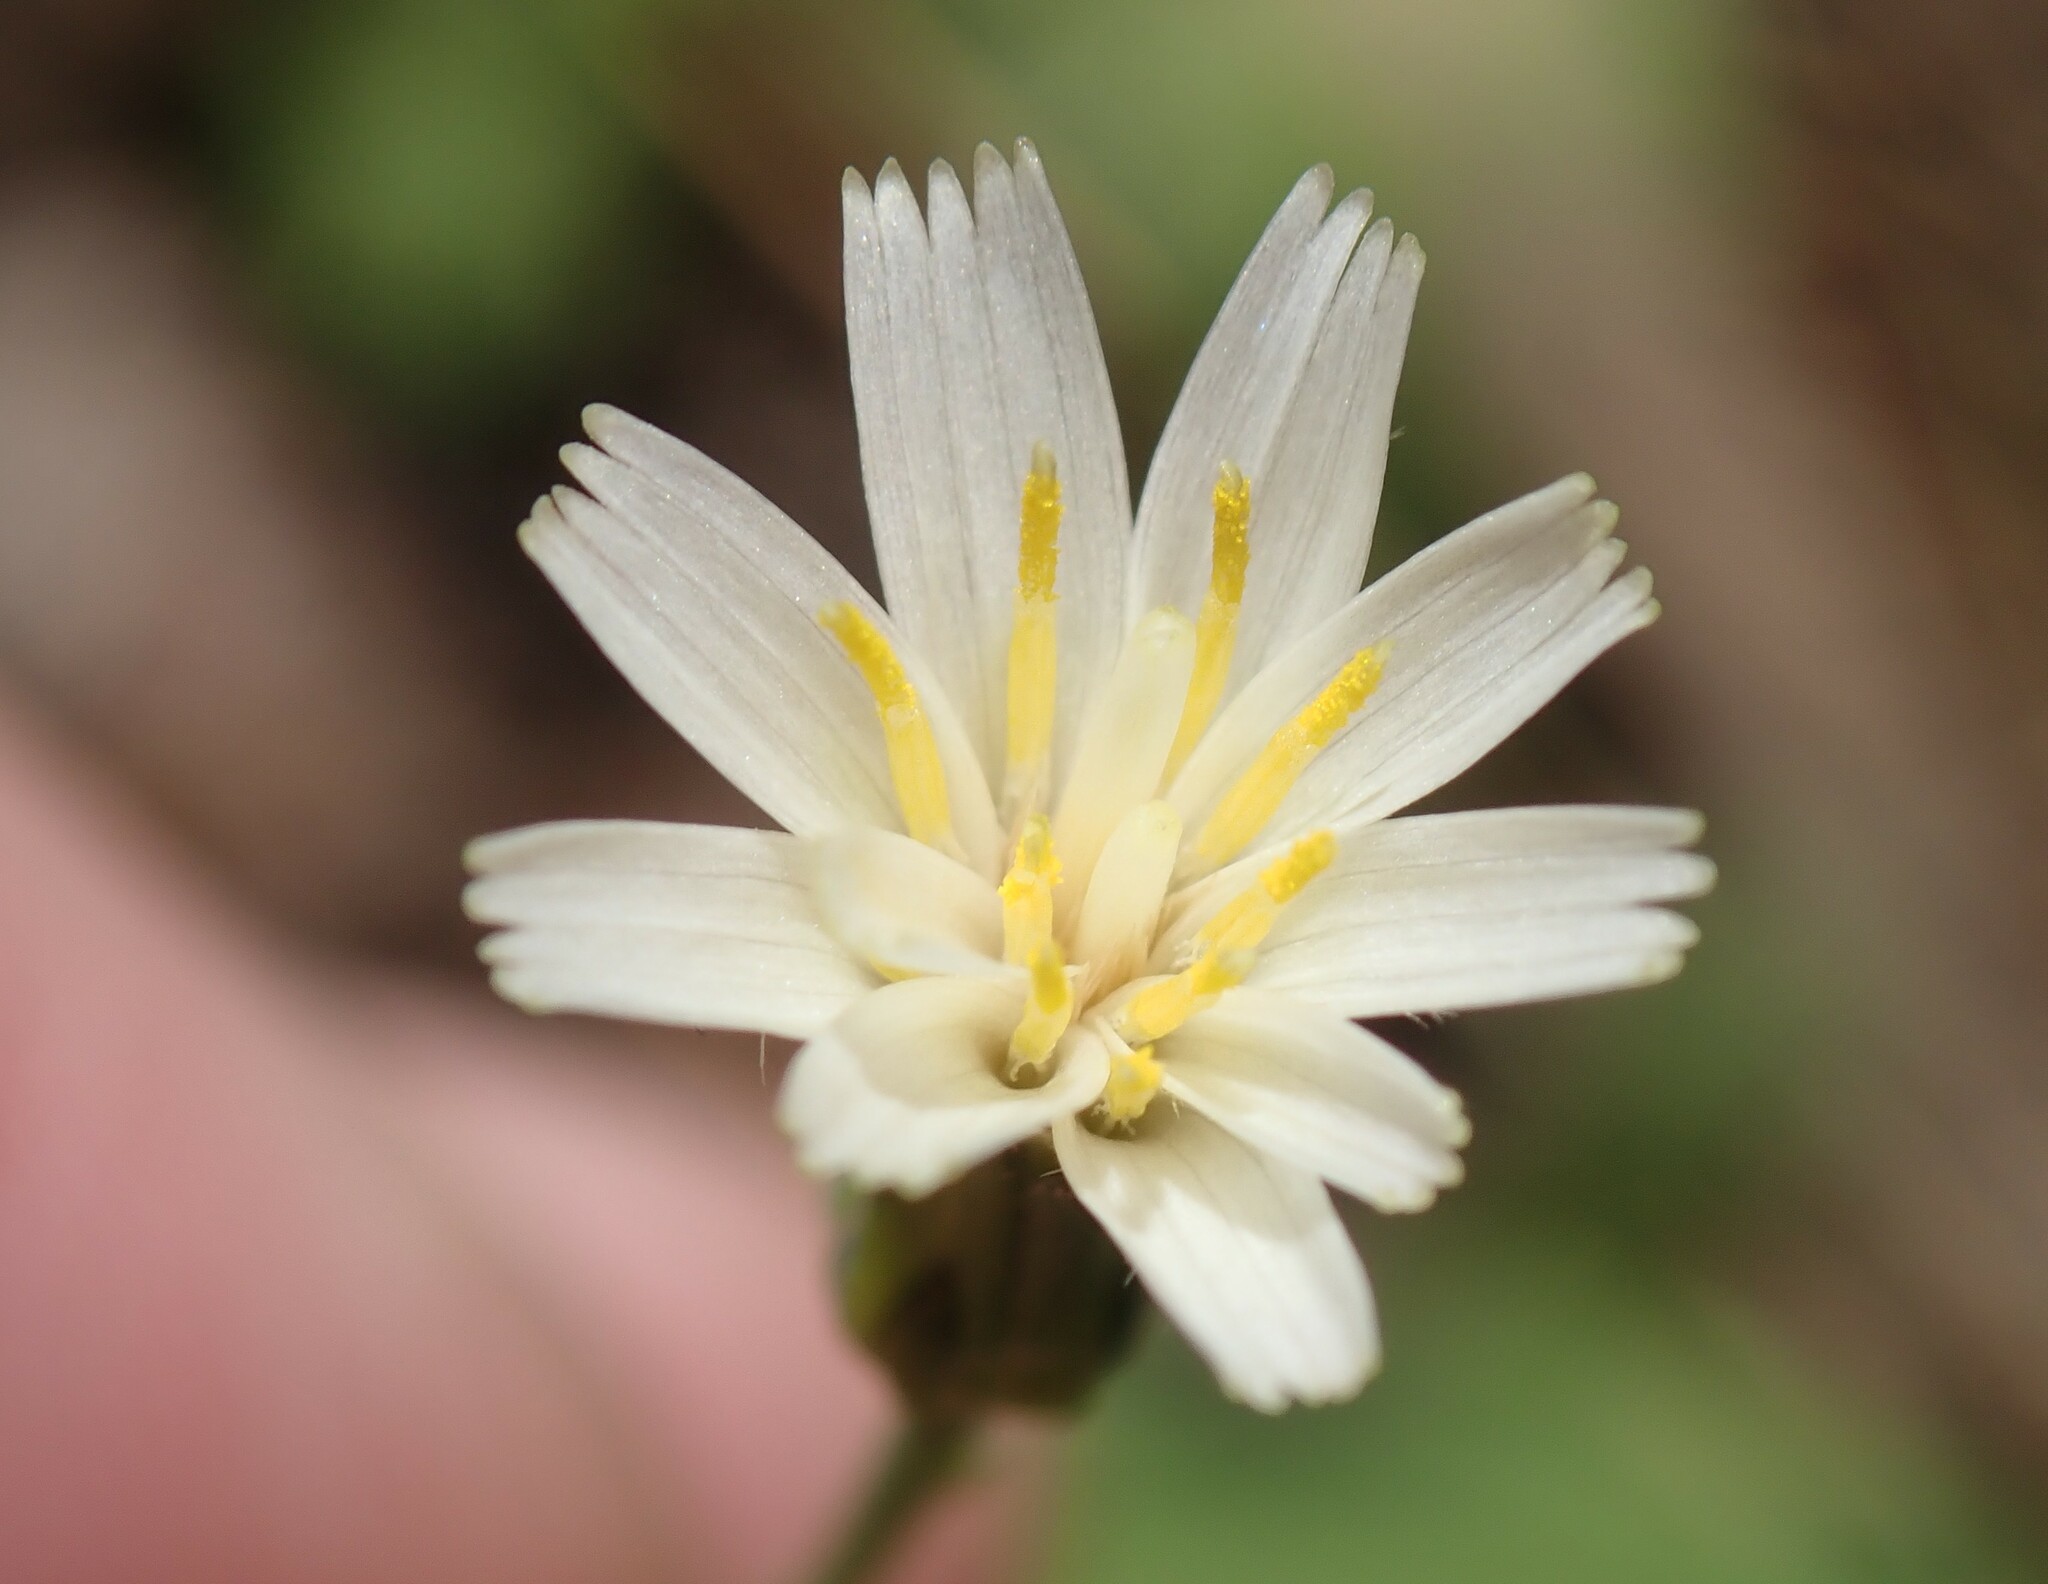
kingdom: Plantae
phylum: Tracheophyta
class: Magnoliopsida
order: Asterales
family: Asteraceae
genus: Hieracium
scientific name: Hieracium albiflorum
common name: White hawkweed
